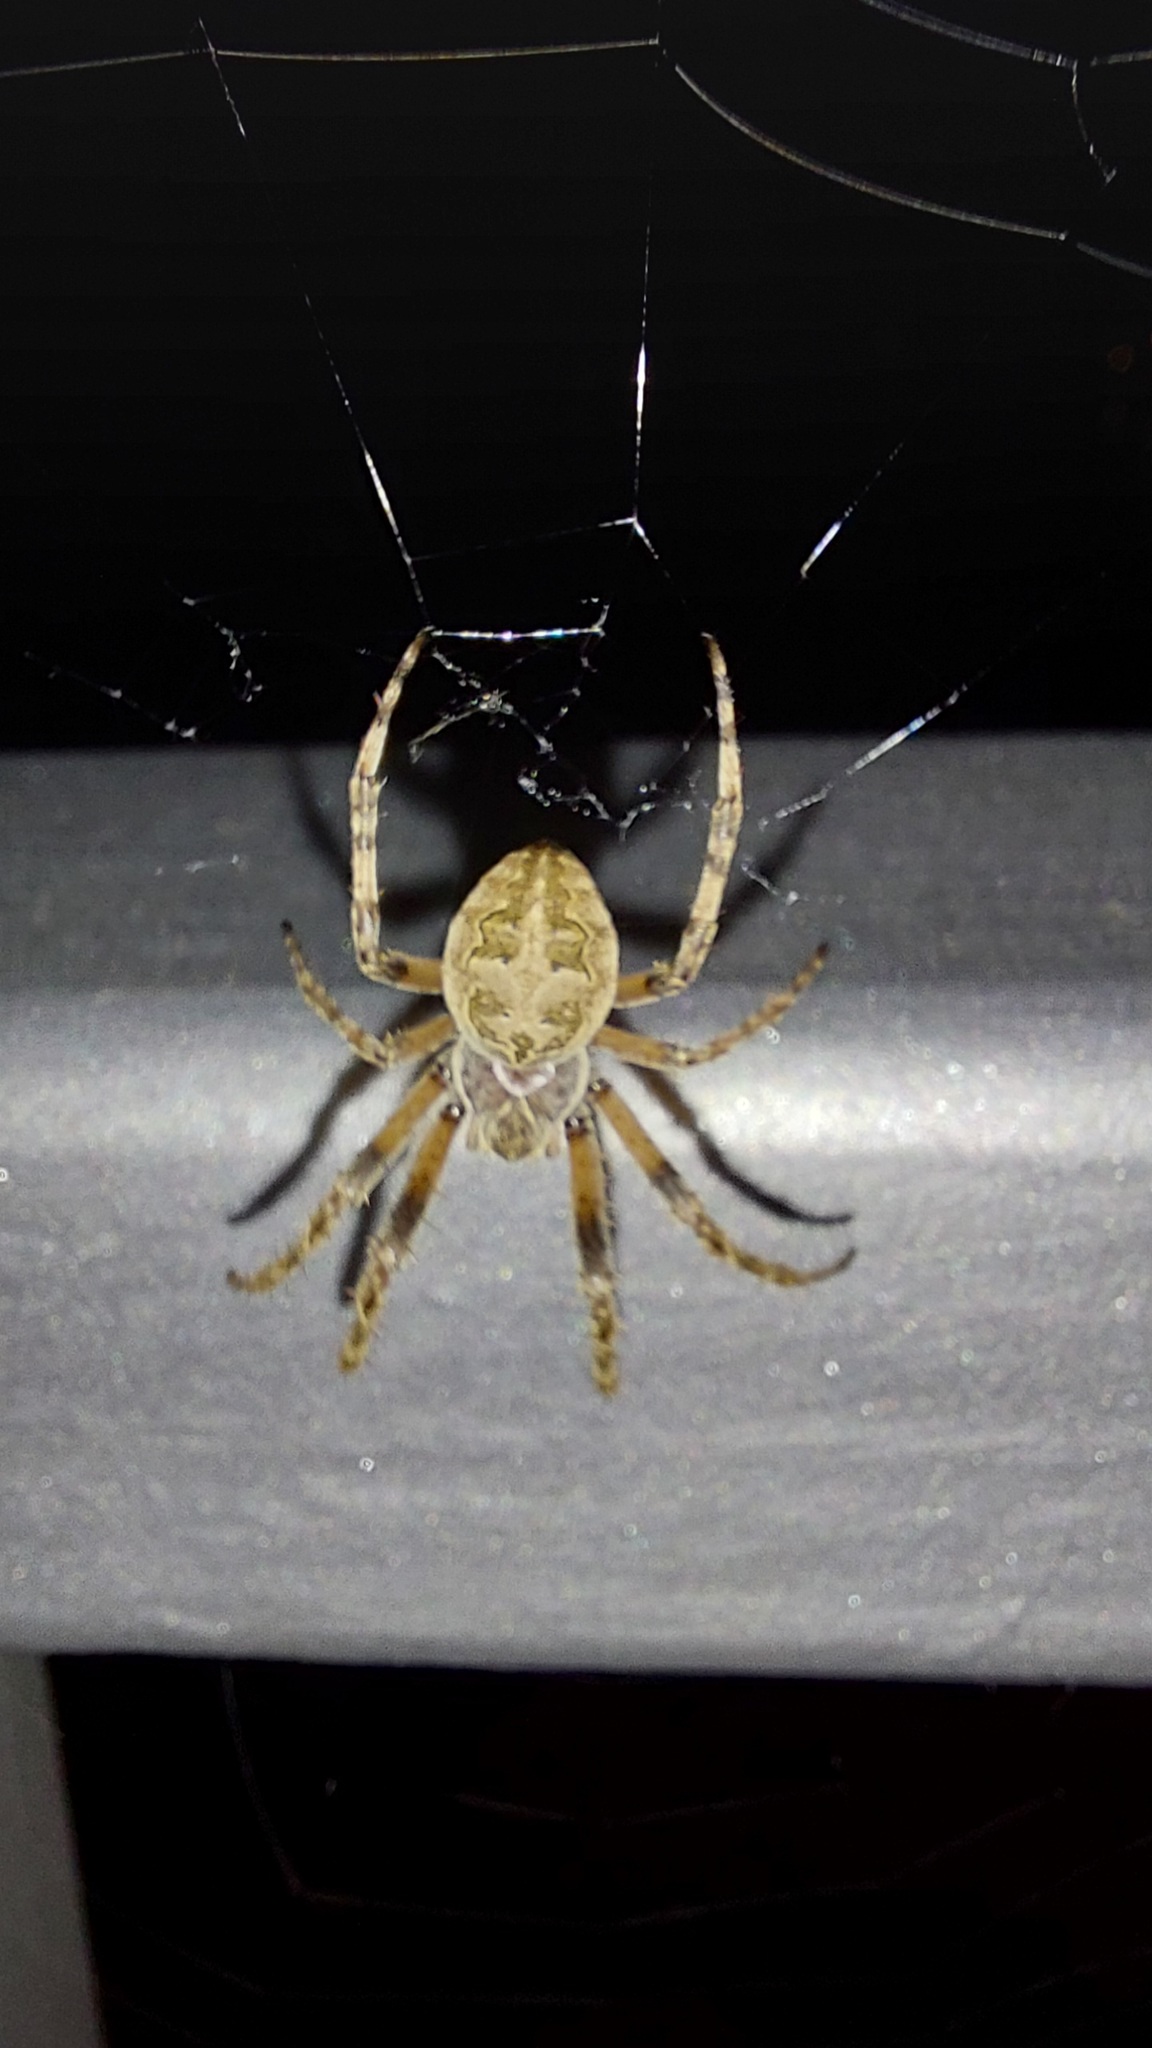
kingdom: Animalia
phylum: Arthropoda
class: Arachnida
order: Araneae
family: Araneidae
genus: Larinioides
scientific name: Larinioides sclopetarius
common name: Bridge orbweaver
